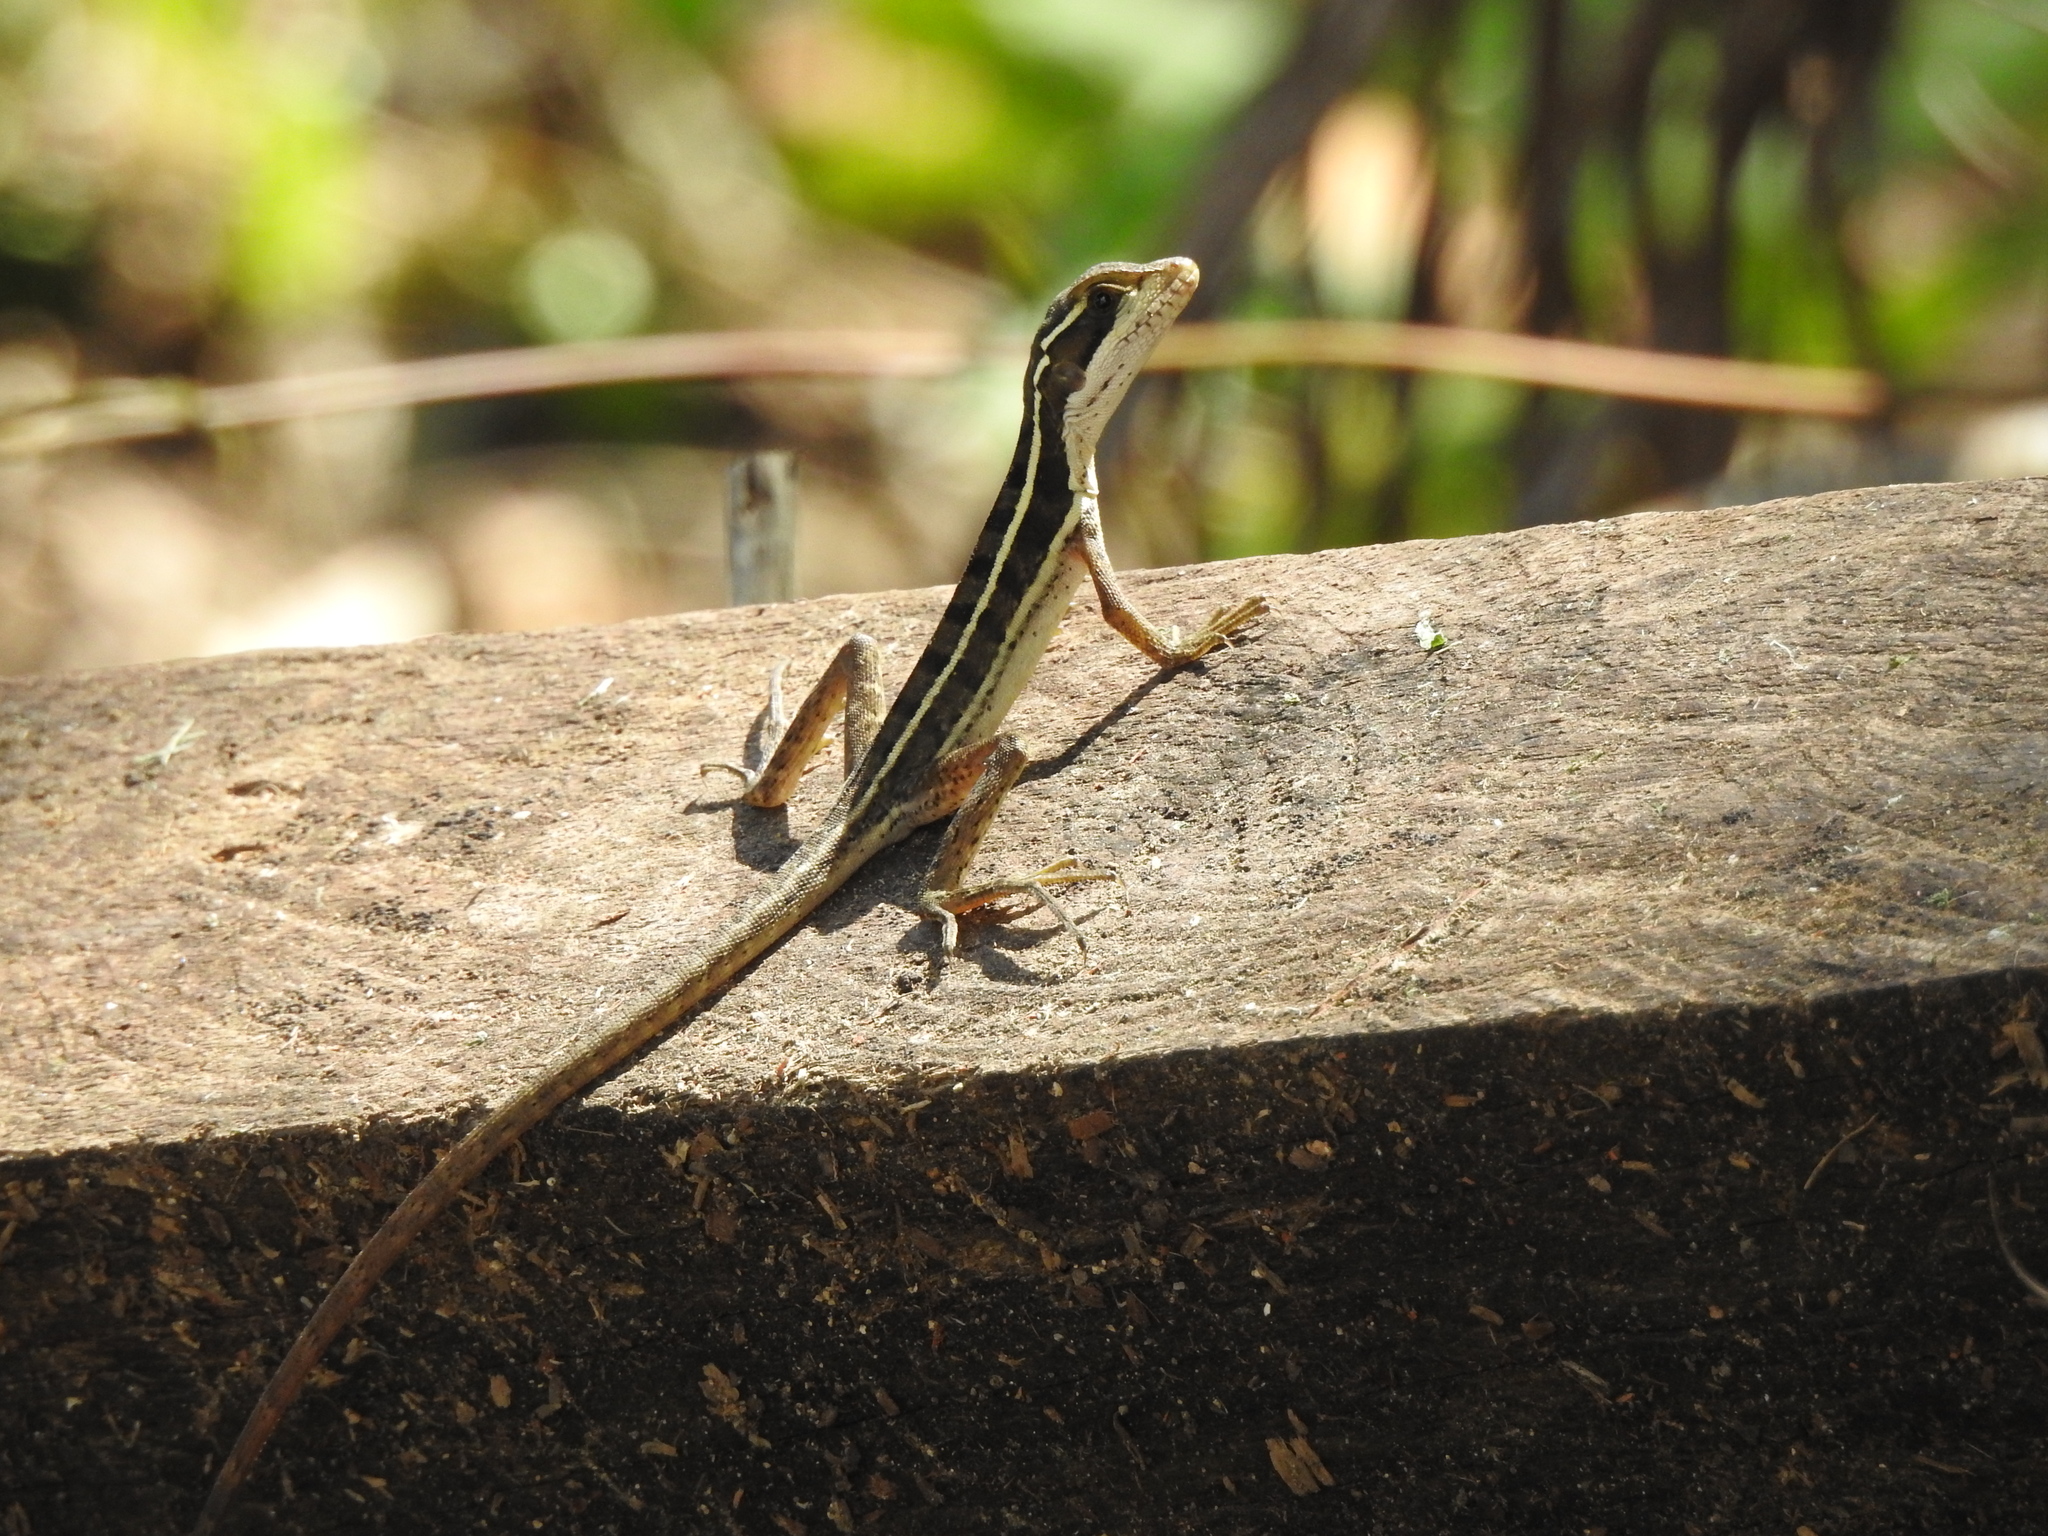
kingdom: Animalia
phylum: Chordata
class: Squamata
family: Corytophanidae
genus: Basiliscus
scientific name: Basiliscus vittatus
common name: Brown basilisk
